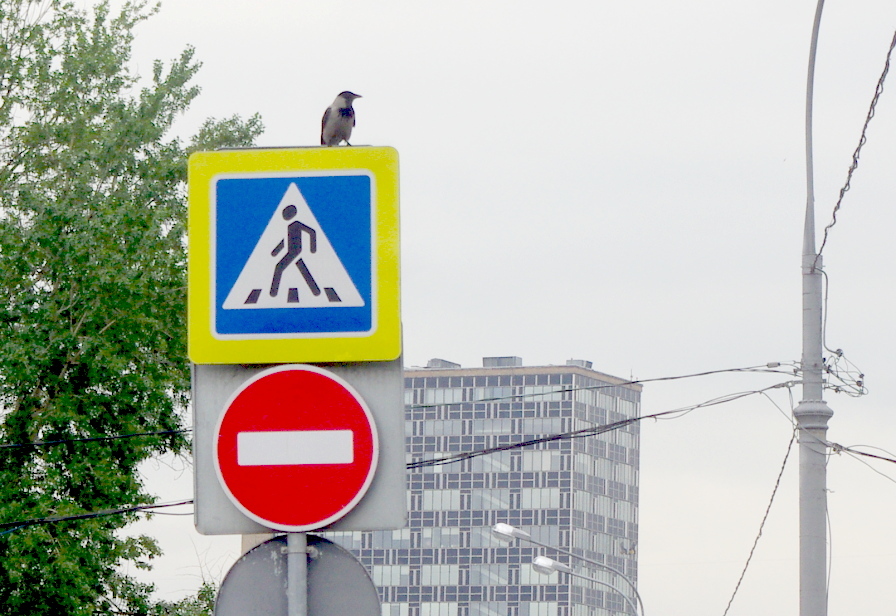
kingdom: Animalia
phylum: Chordata
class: Aves
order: Passeriformes
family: Corvidae
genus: Corvus
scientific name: Corvus cornix
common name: Hooded crow
